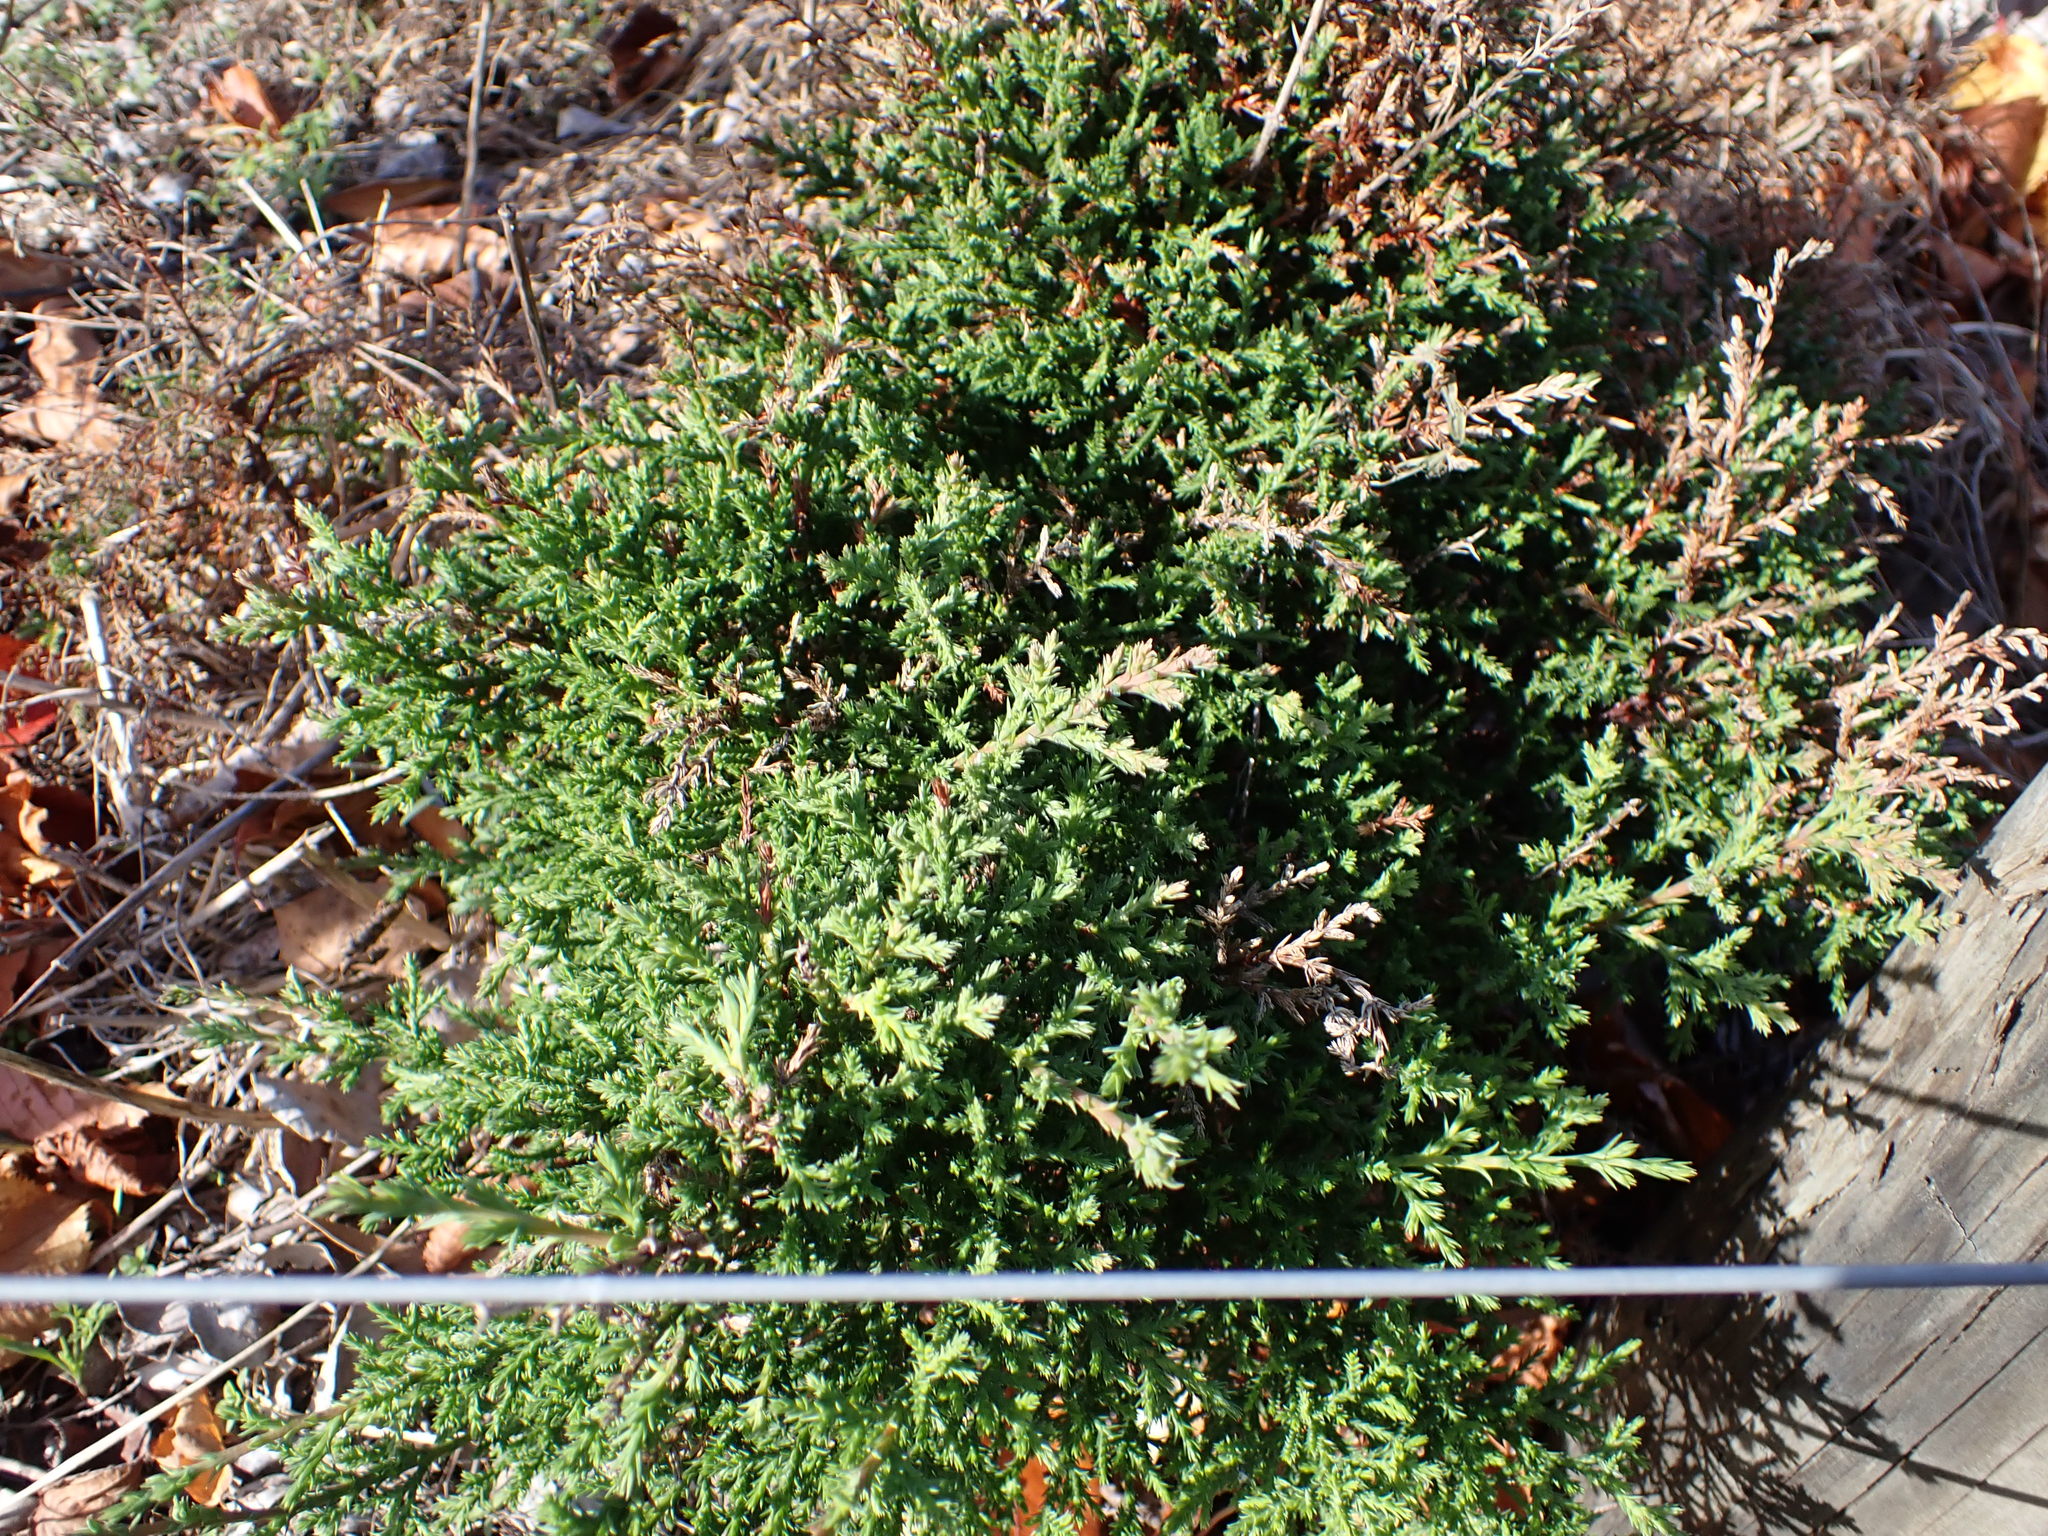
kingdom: Plantae
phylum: Tracheophyta
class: Pinopsida
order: Pinales
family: Cupressaceae
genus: Cupressus
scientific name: Cupressus macrocarpa
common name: Monterey cypress
